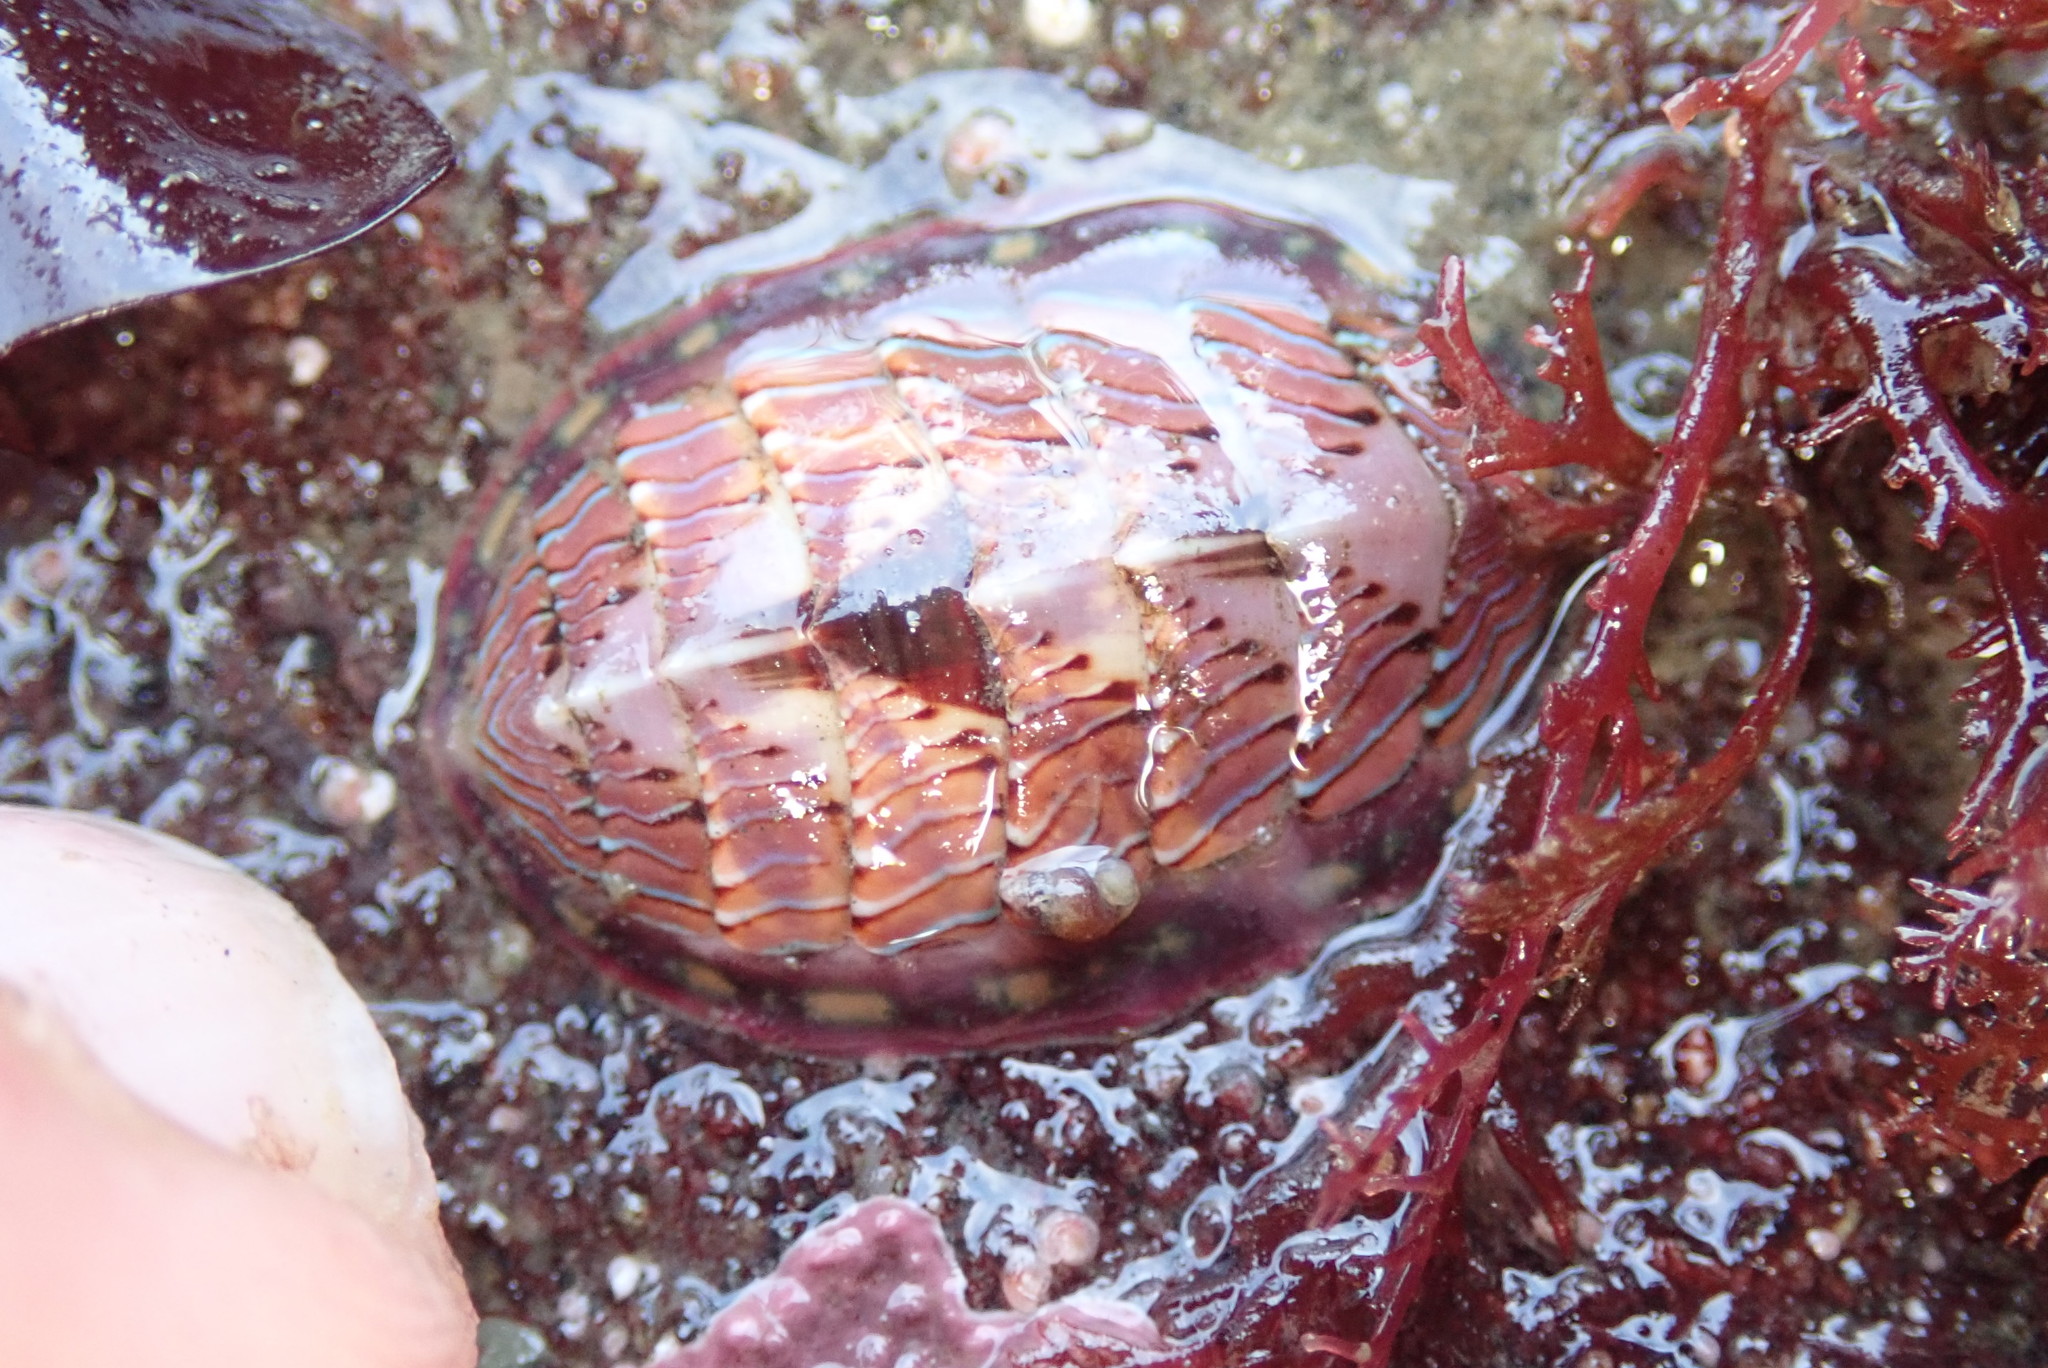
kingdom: Animalia
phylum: Mollusca
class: Polyplacophora
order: Chitonida
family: Tonicellidae
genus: Tonicella
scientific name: Tonicella lineata
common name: Lined chiton
